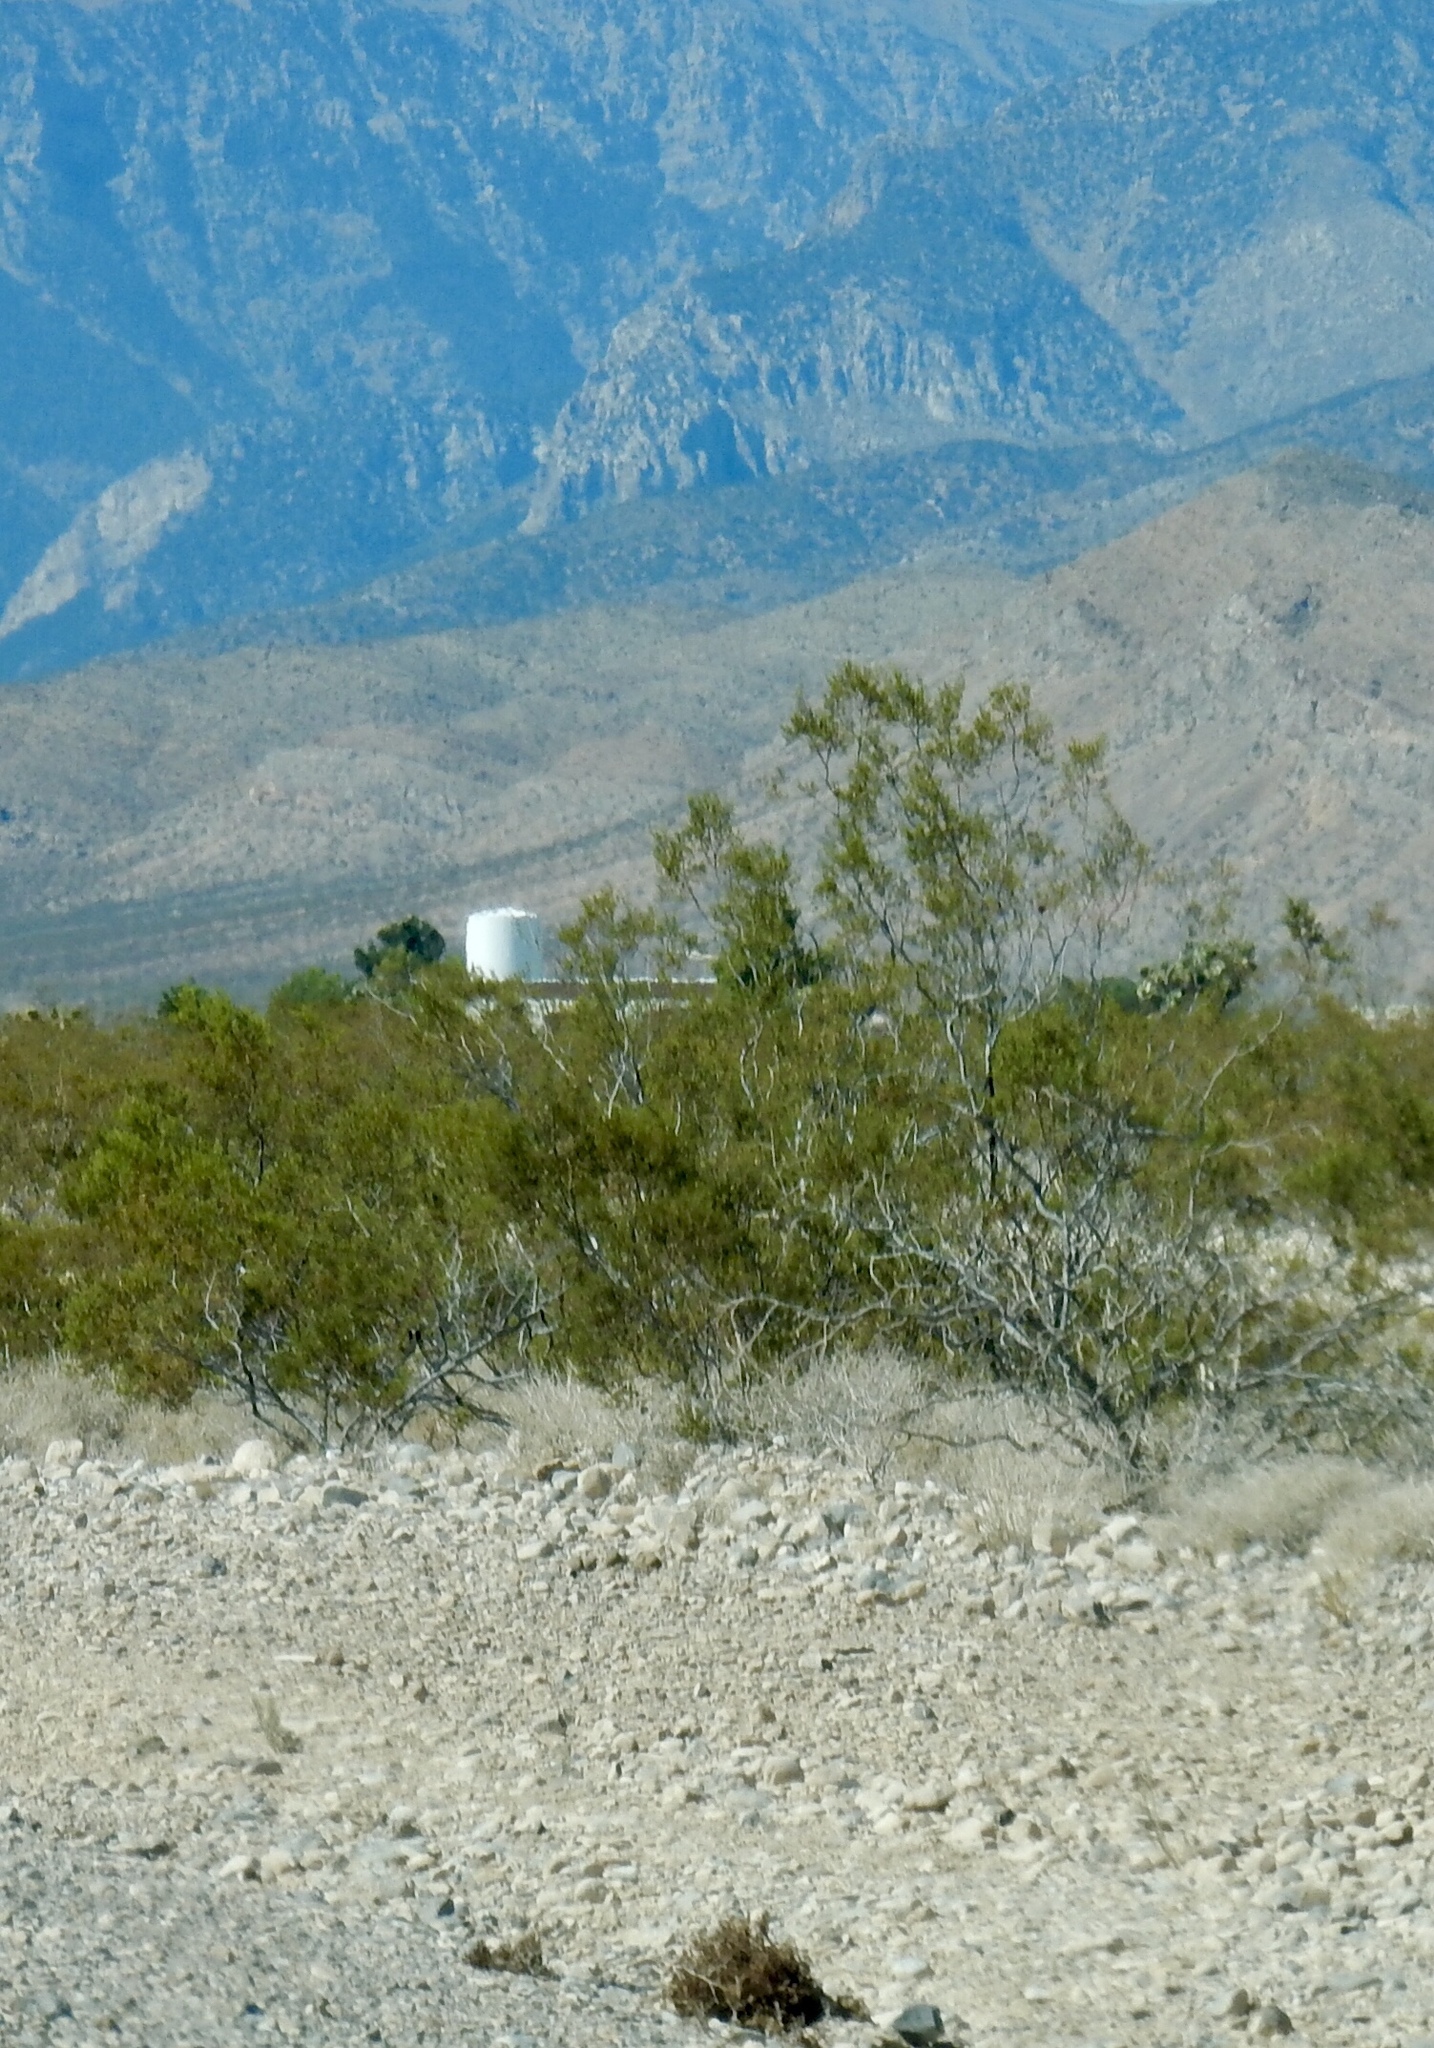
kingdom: Plantae
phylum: Tracheophyta
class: Magnoliopsida
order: Zygophyllales
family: Zygophyllaceae
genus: Larrea
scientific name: Larrea tridentata
